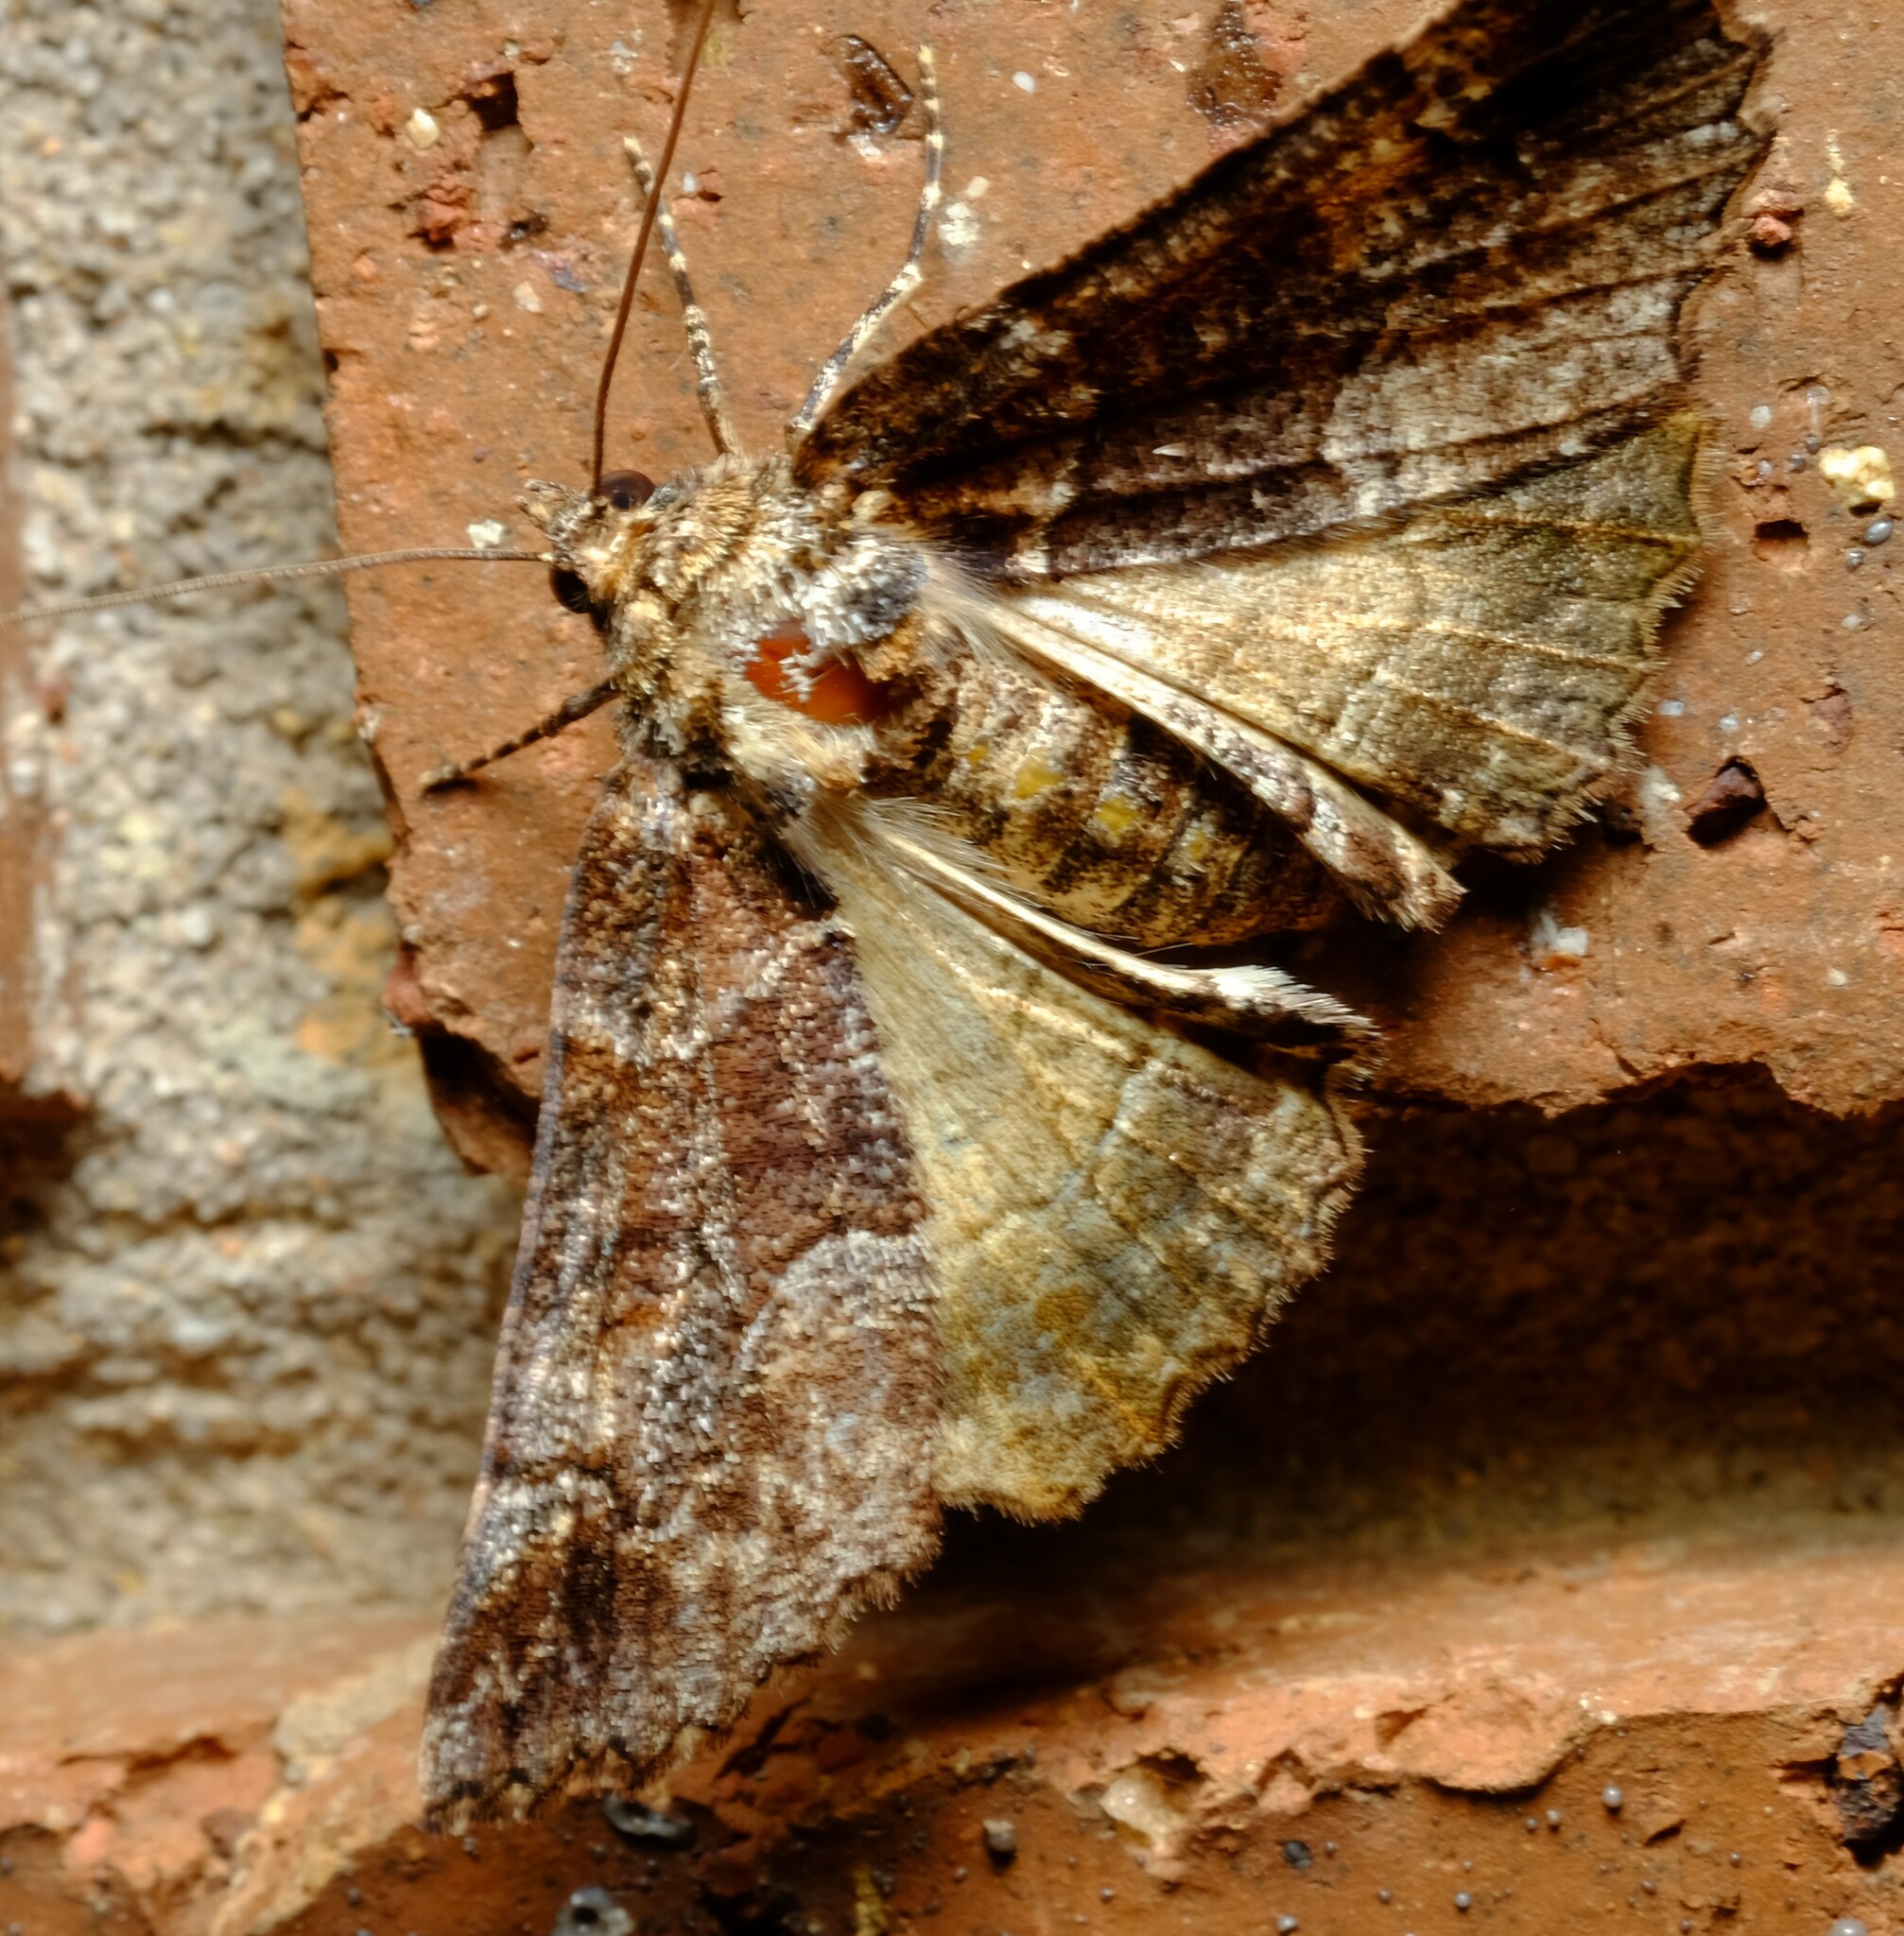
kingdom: Animalia
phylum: Arthropoda
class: Insecta
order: Lepidoptera
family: Geometridae
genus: Gastrina
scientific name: Gastrina cristaria
